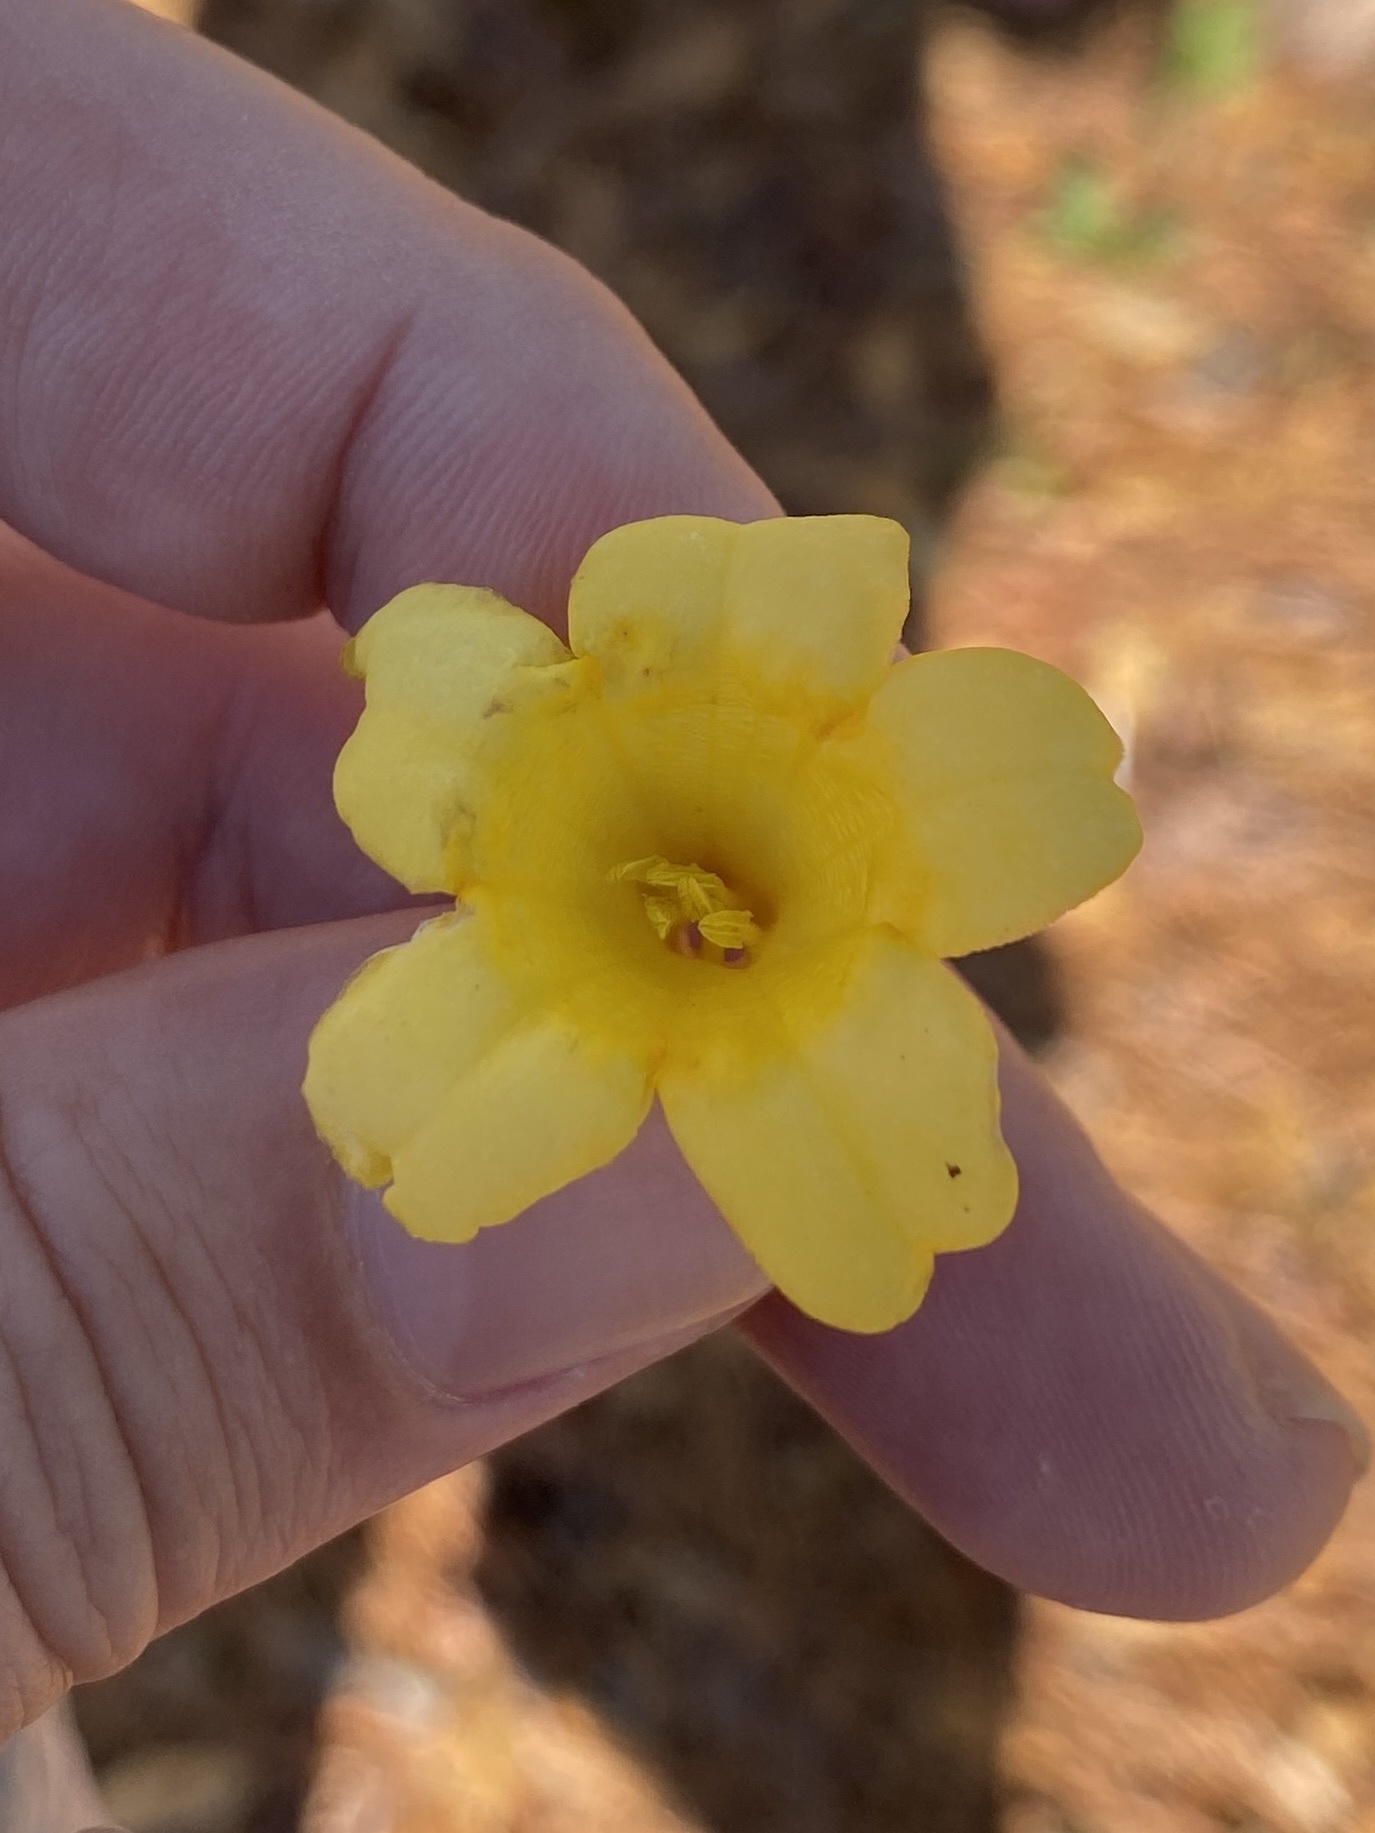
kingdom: Plantae
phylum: Tracheophyta
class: Magnoliopsida
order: Gentianales
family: Gelsemiaceae
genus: Gelsemium
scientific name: Gelsemium sempervirens
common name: Carolina-jasmine
